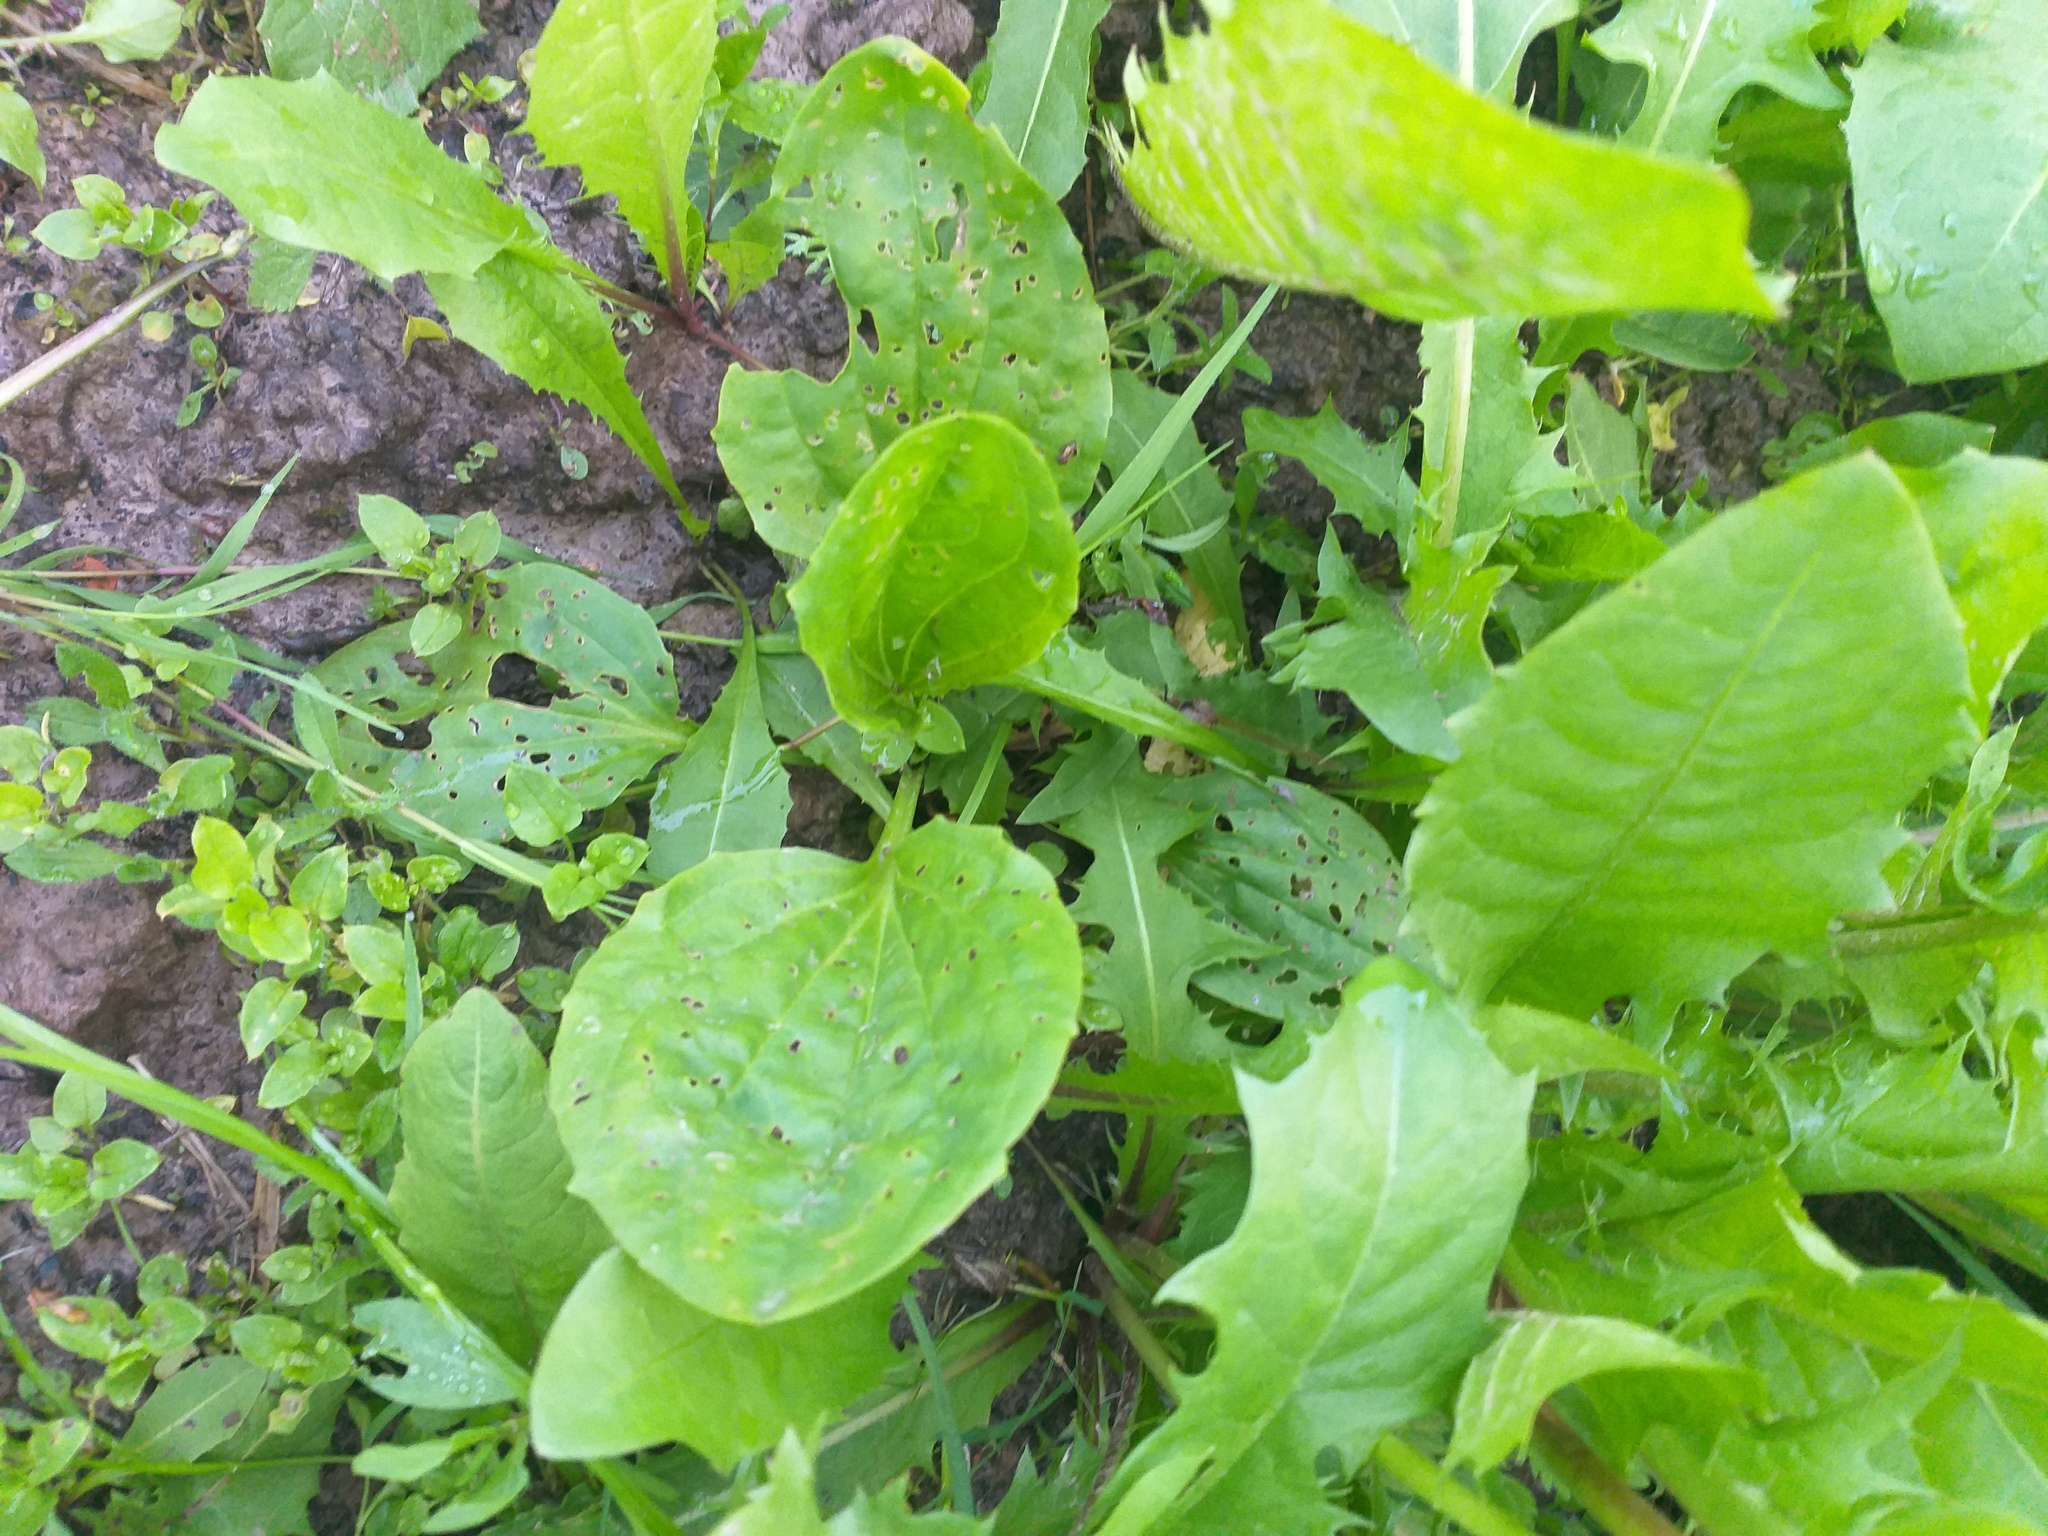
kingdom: Plantae
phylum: Tracheophyta
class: Magnoliopsida
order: Lamiales
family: Plantaginaceae
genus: Plantago
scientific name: Plantago major
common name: Common plantain
